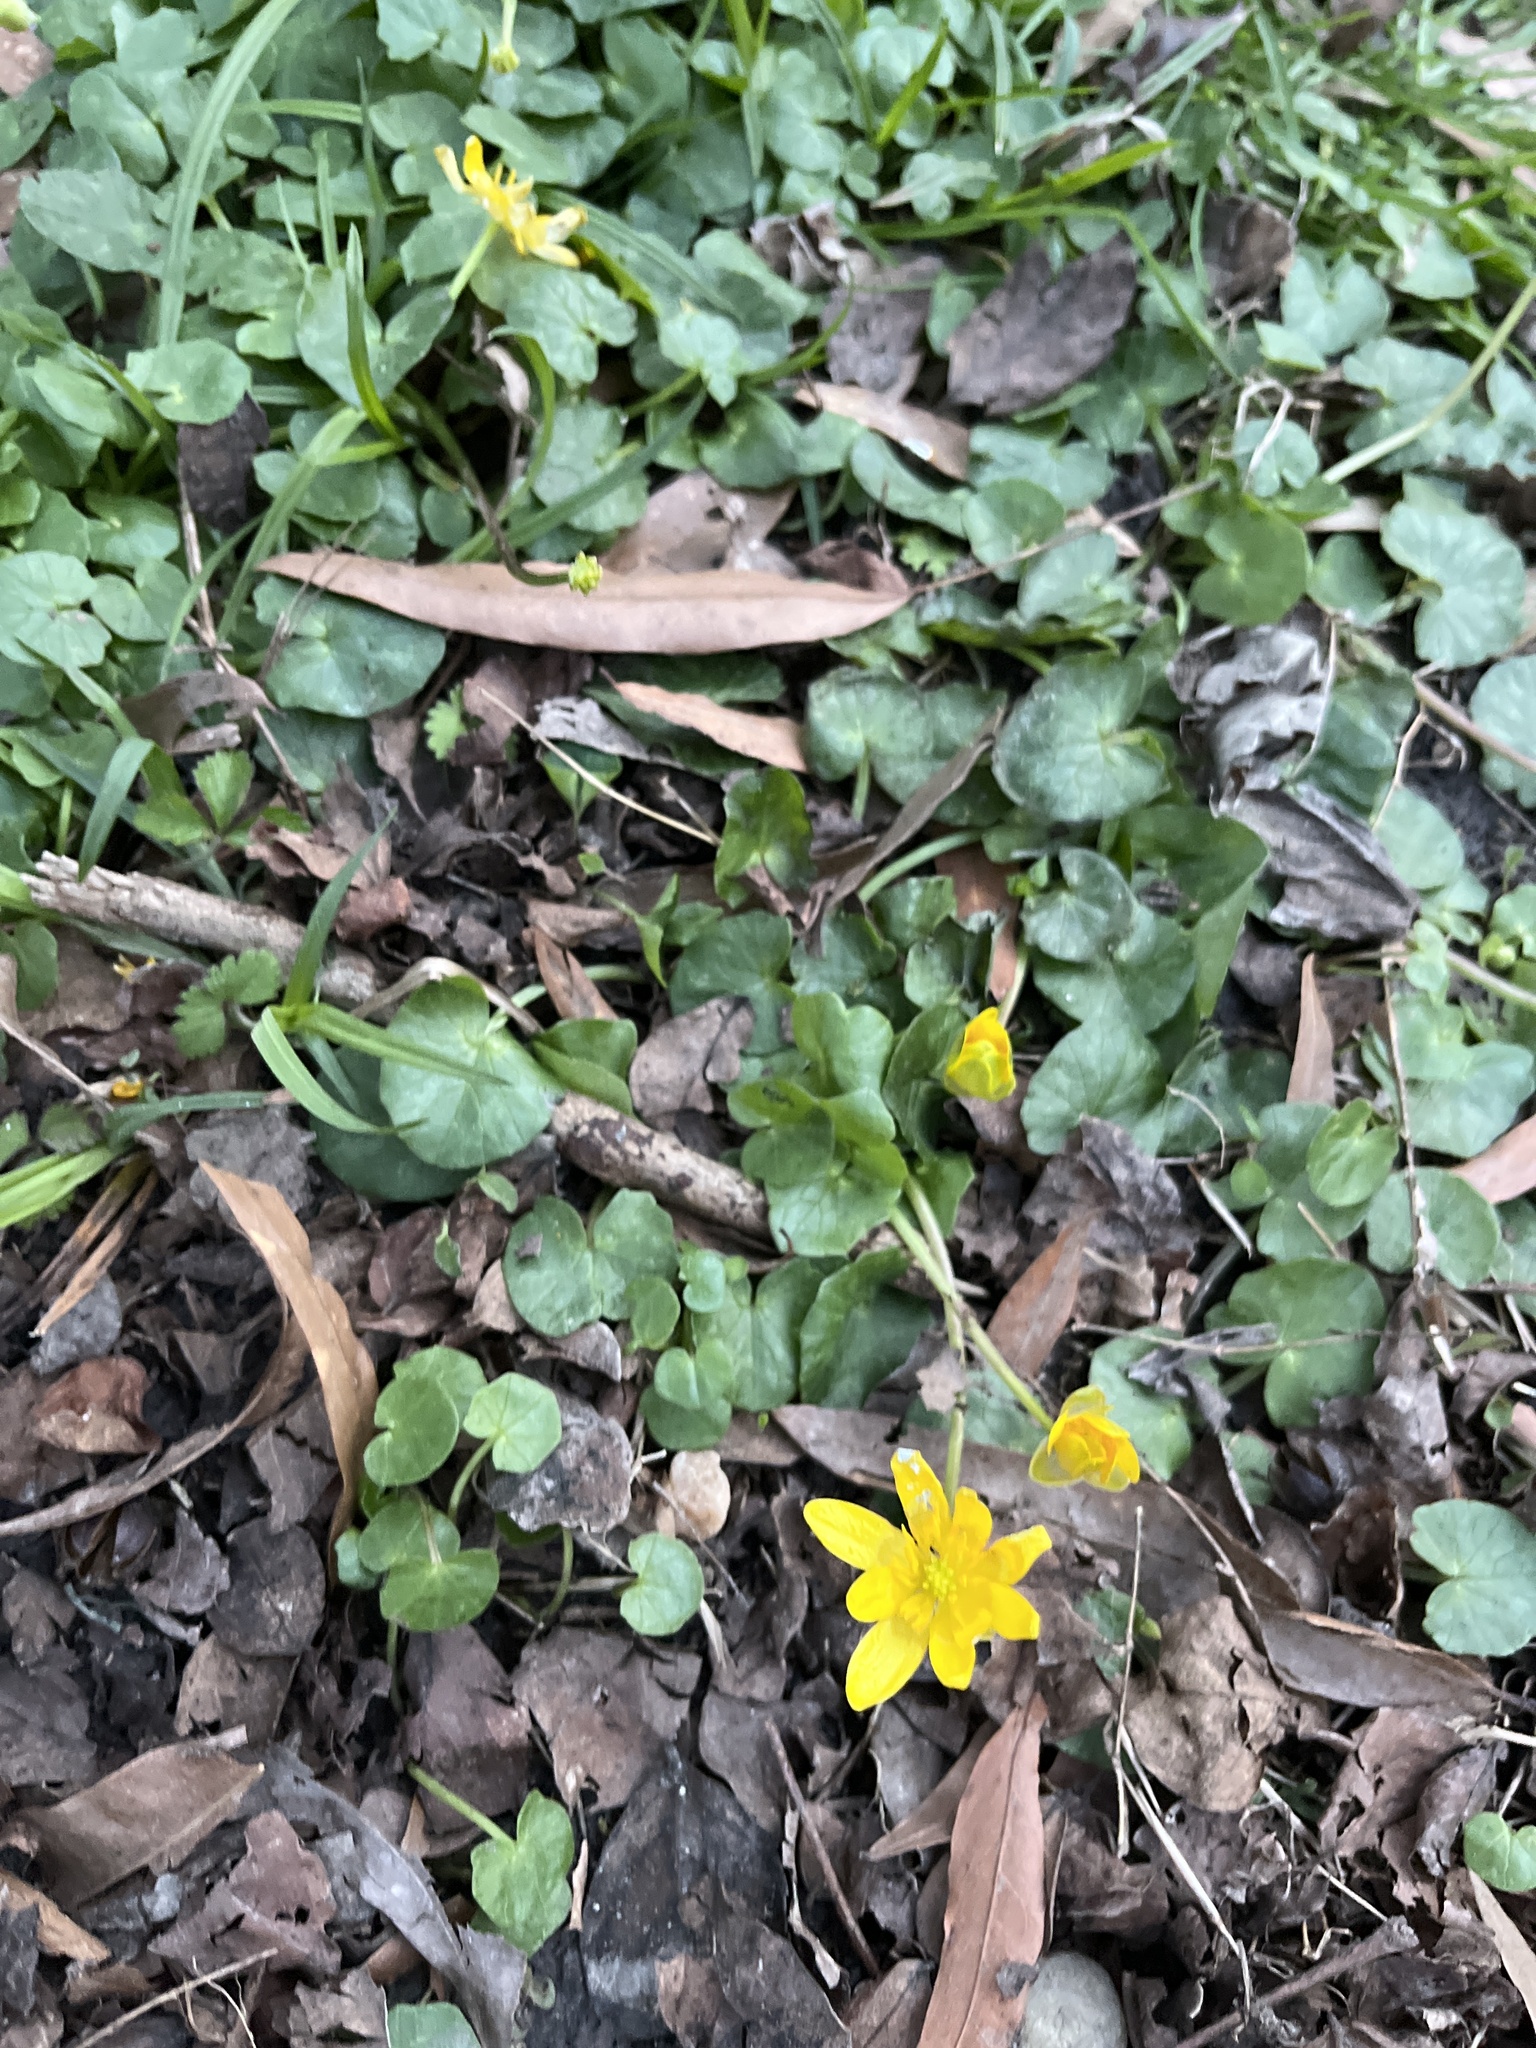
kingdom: Plantae
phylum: Tracheophyta
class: Magnoliopsida
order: Ranunculales
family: Ranunculaceae
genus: Ficaria
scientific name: Ficaria verna
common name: Lesser celandine
